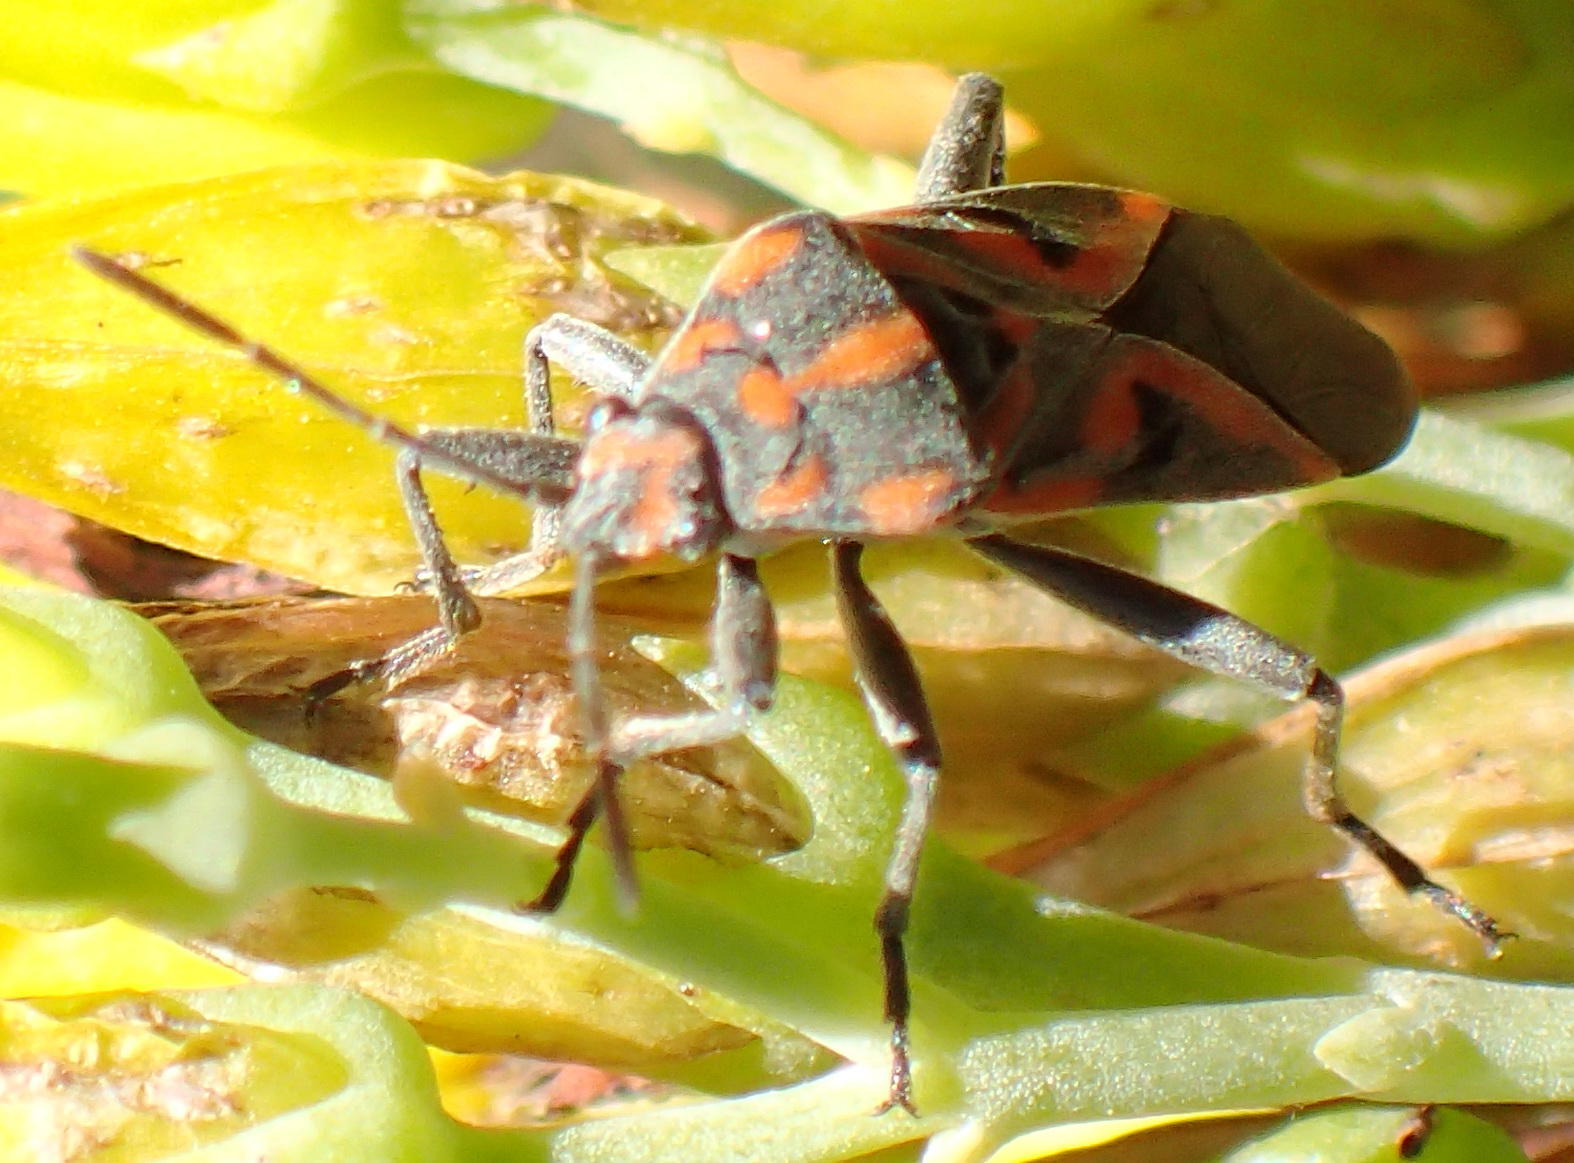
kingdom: Animalia
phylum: Arthropoda
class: Insecta
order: Hemiptera
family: Lygaeidae
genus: Spilostethus
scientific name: Spilostethus furcula
